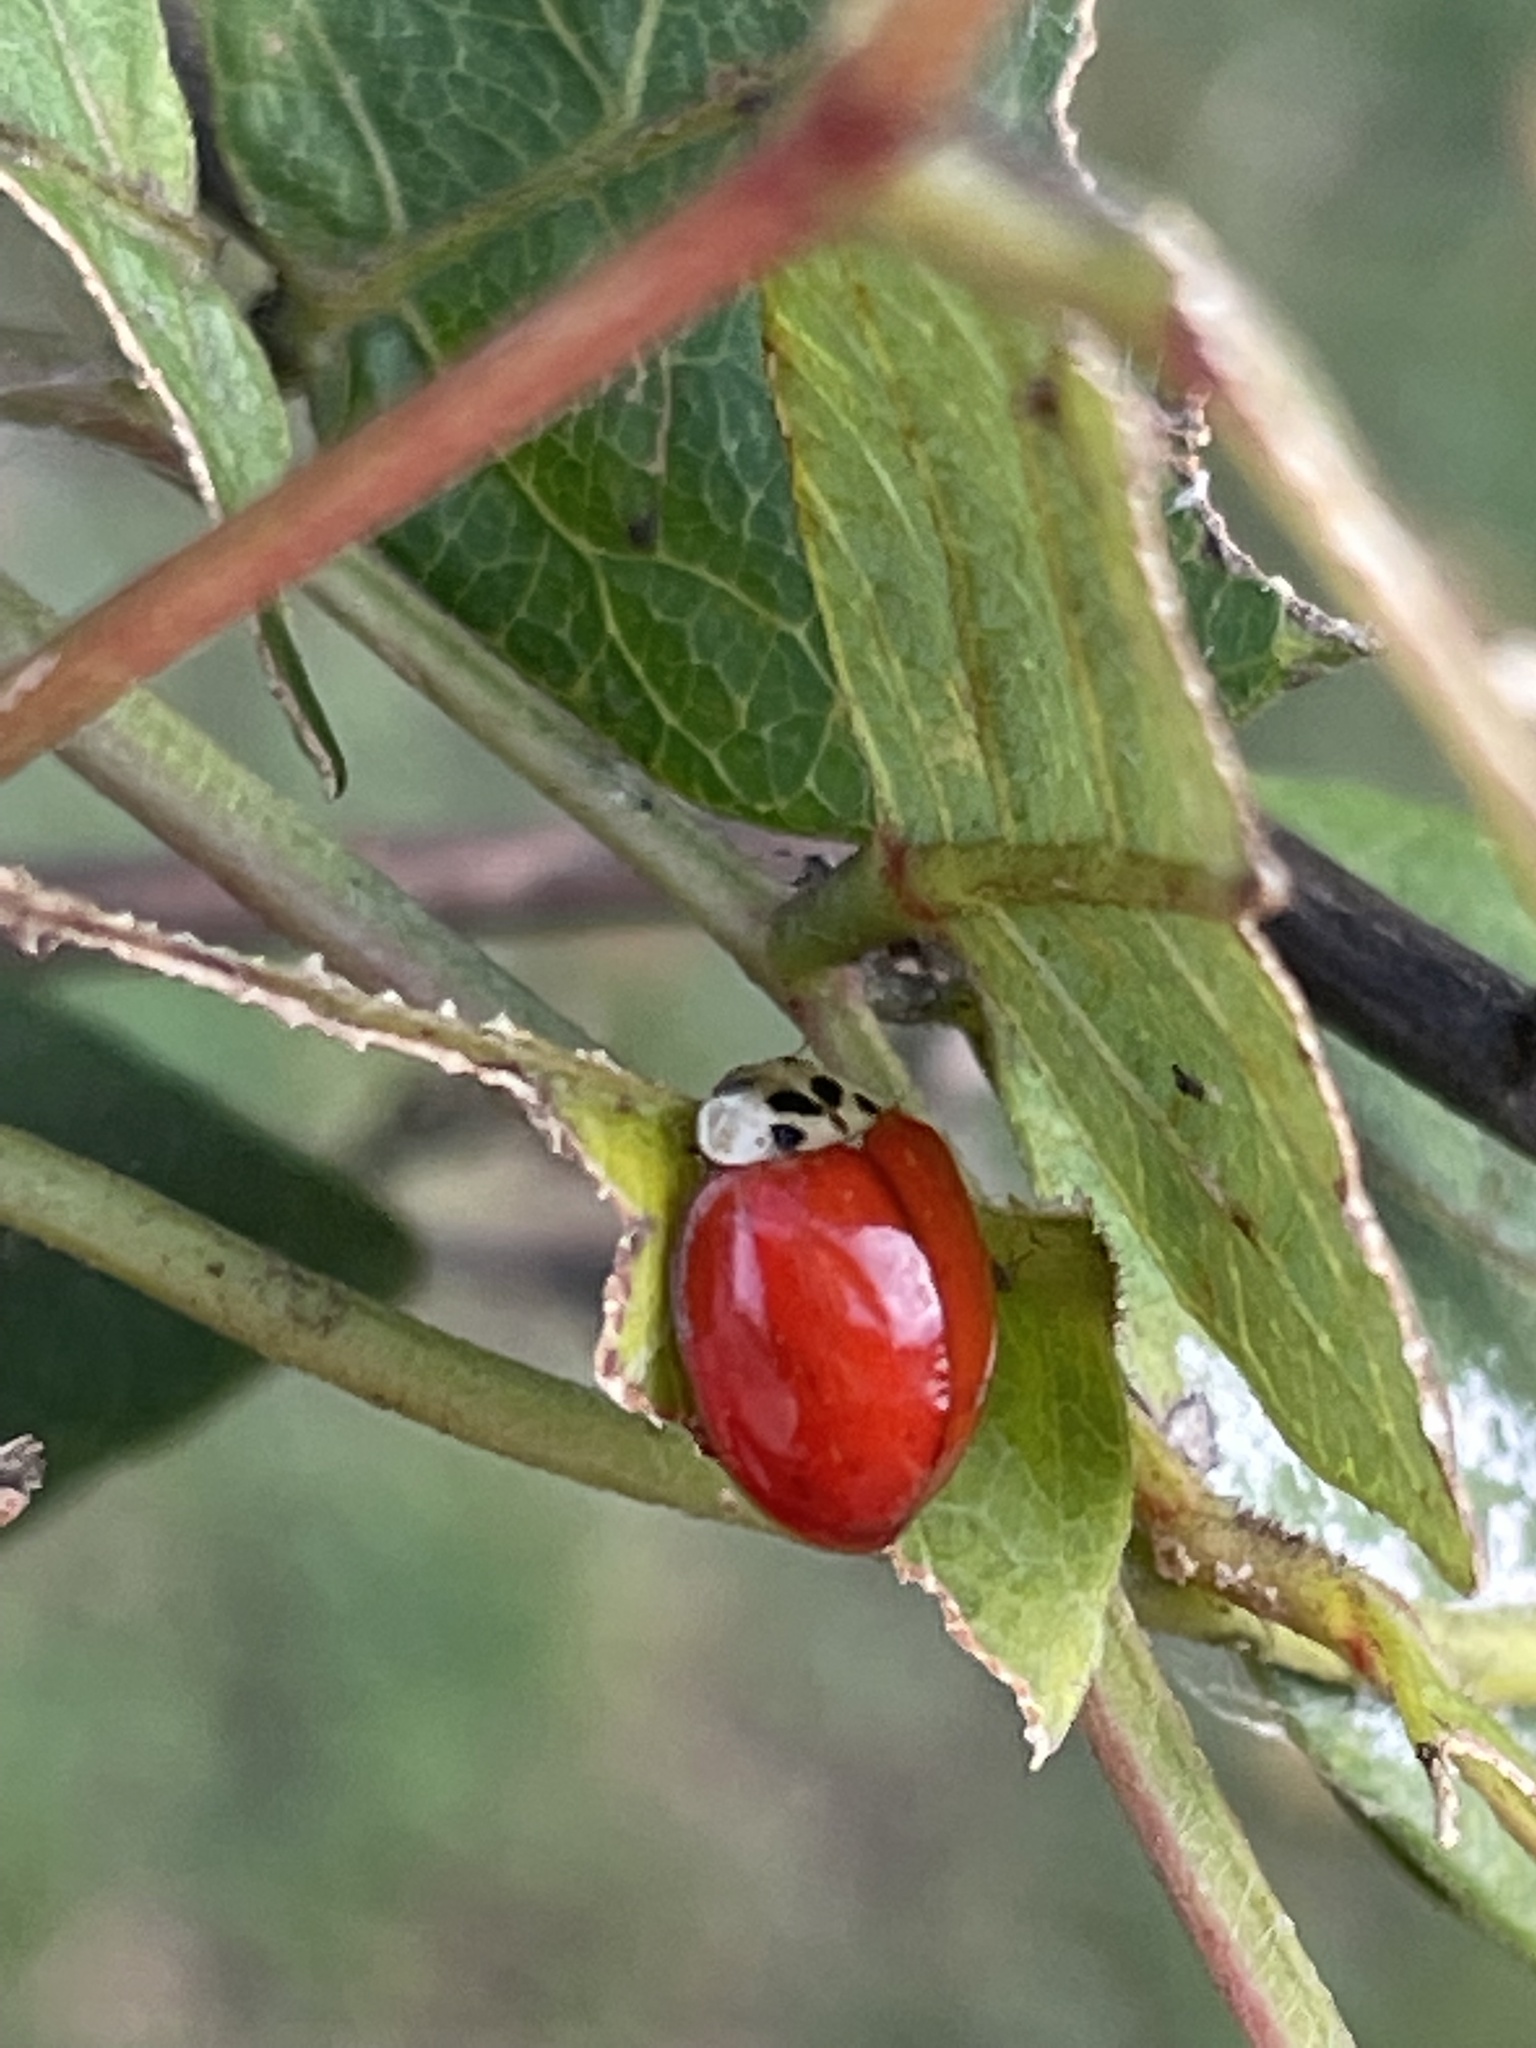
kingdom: Animalia
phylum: Arthropoda
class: Insecta
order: Coleoptera
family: Coccinellidae
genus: Harmonia
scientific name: Harmonia axyridis
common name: Harlequin ladybird
